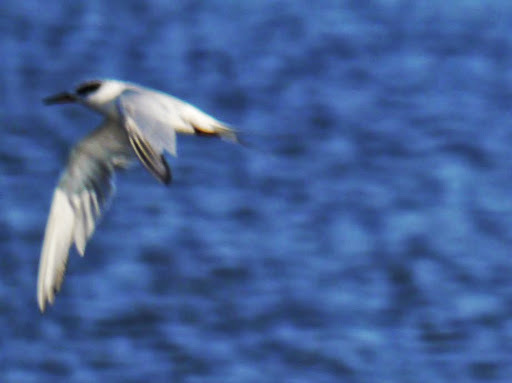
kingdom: Animalia
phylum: Chordata
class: Aves
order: Charadriiformes
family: Laridae
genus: Sternula
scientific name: Sternula antillarum
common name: Least tern
